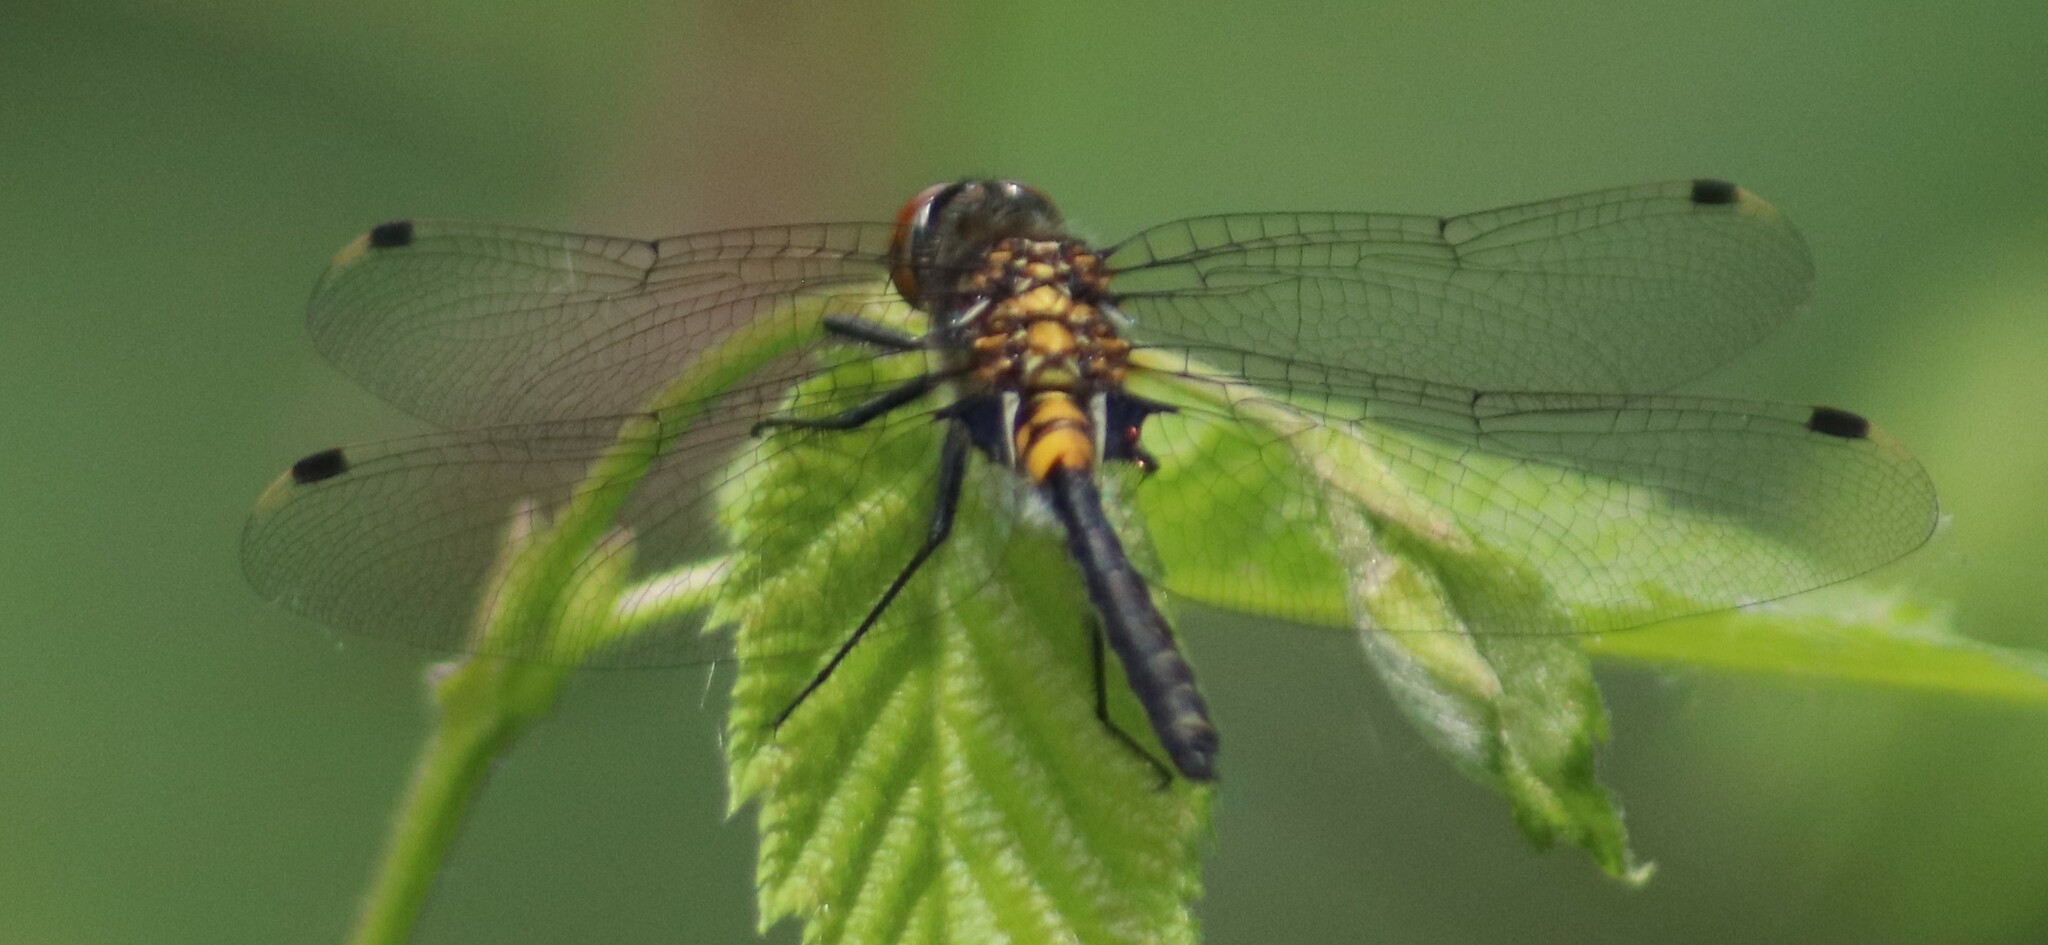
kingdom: Animalia
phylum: Arthropoda
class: Insecta
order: Odonata
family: Libellulidae
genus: Leucorrhinia
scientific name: Leucorrhinia proxima
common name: Belted whiteface
